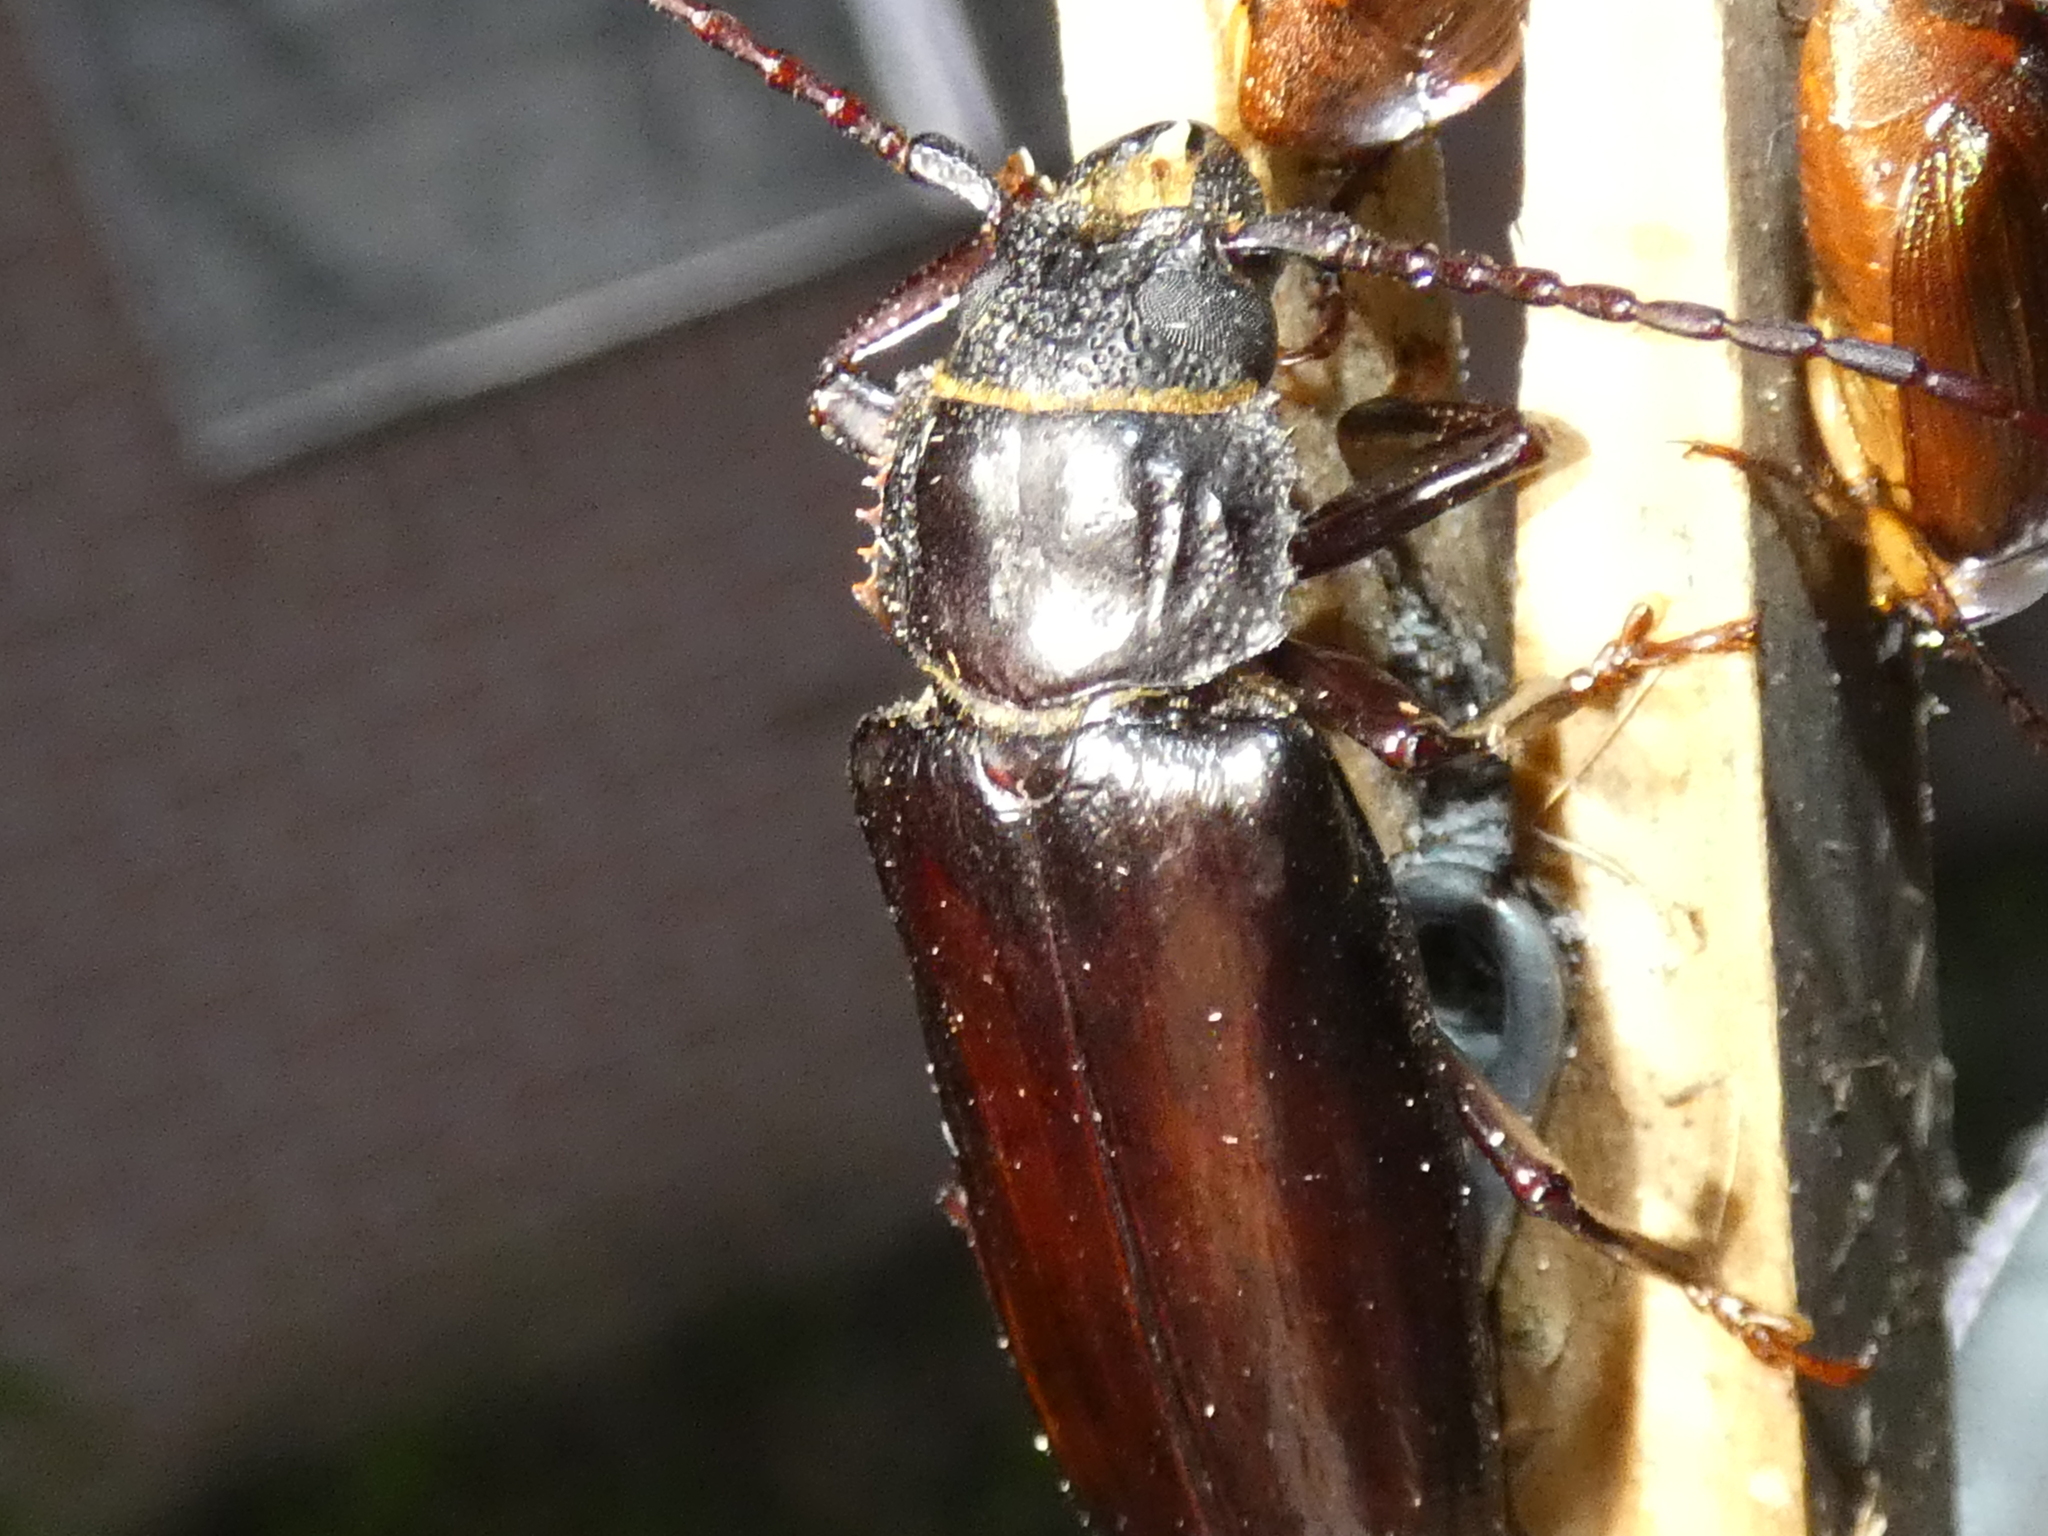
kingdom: Animalia
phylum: Arthropoda
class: Insecta
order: Coleoptera
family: Cerambycidae
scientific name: Cerambycidae
